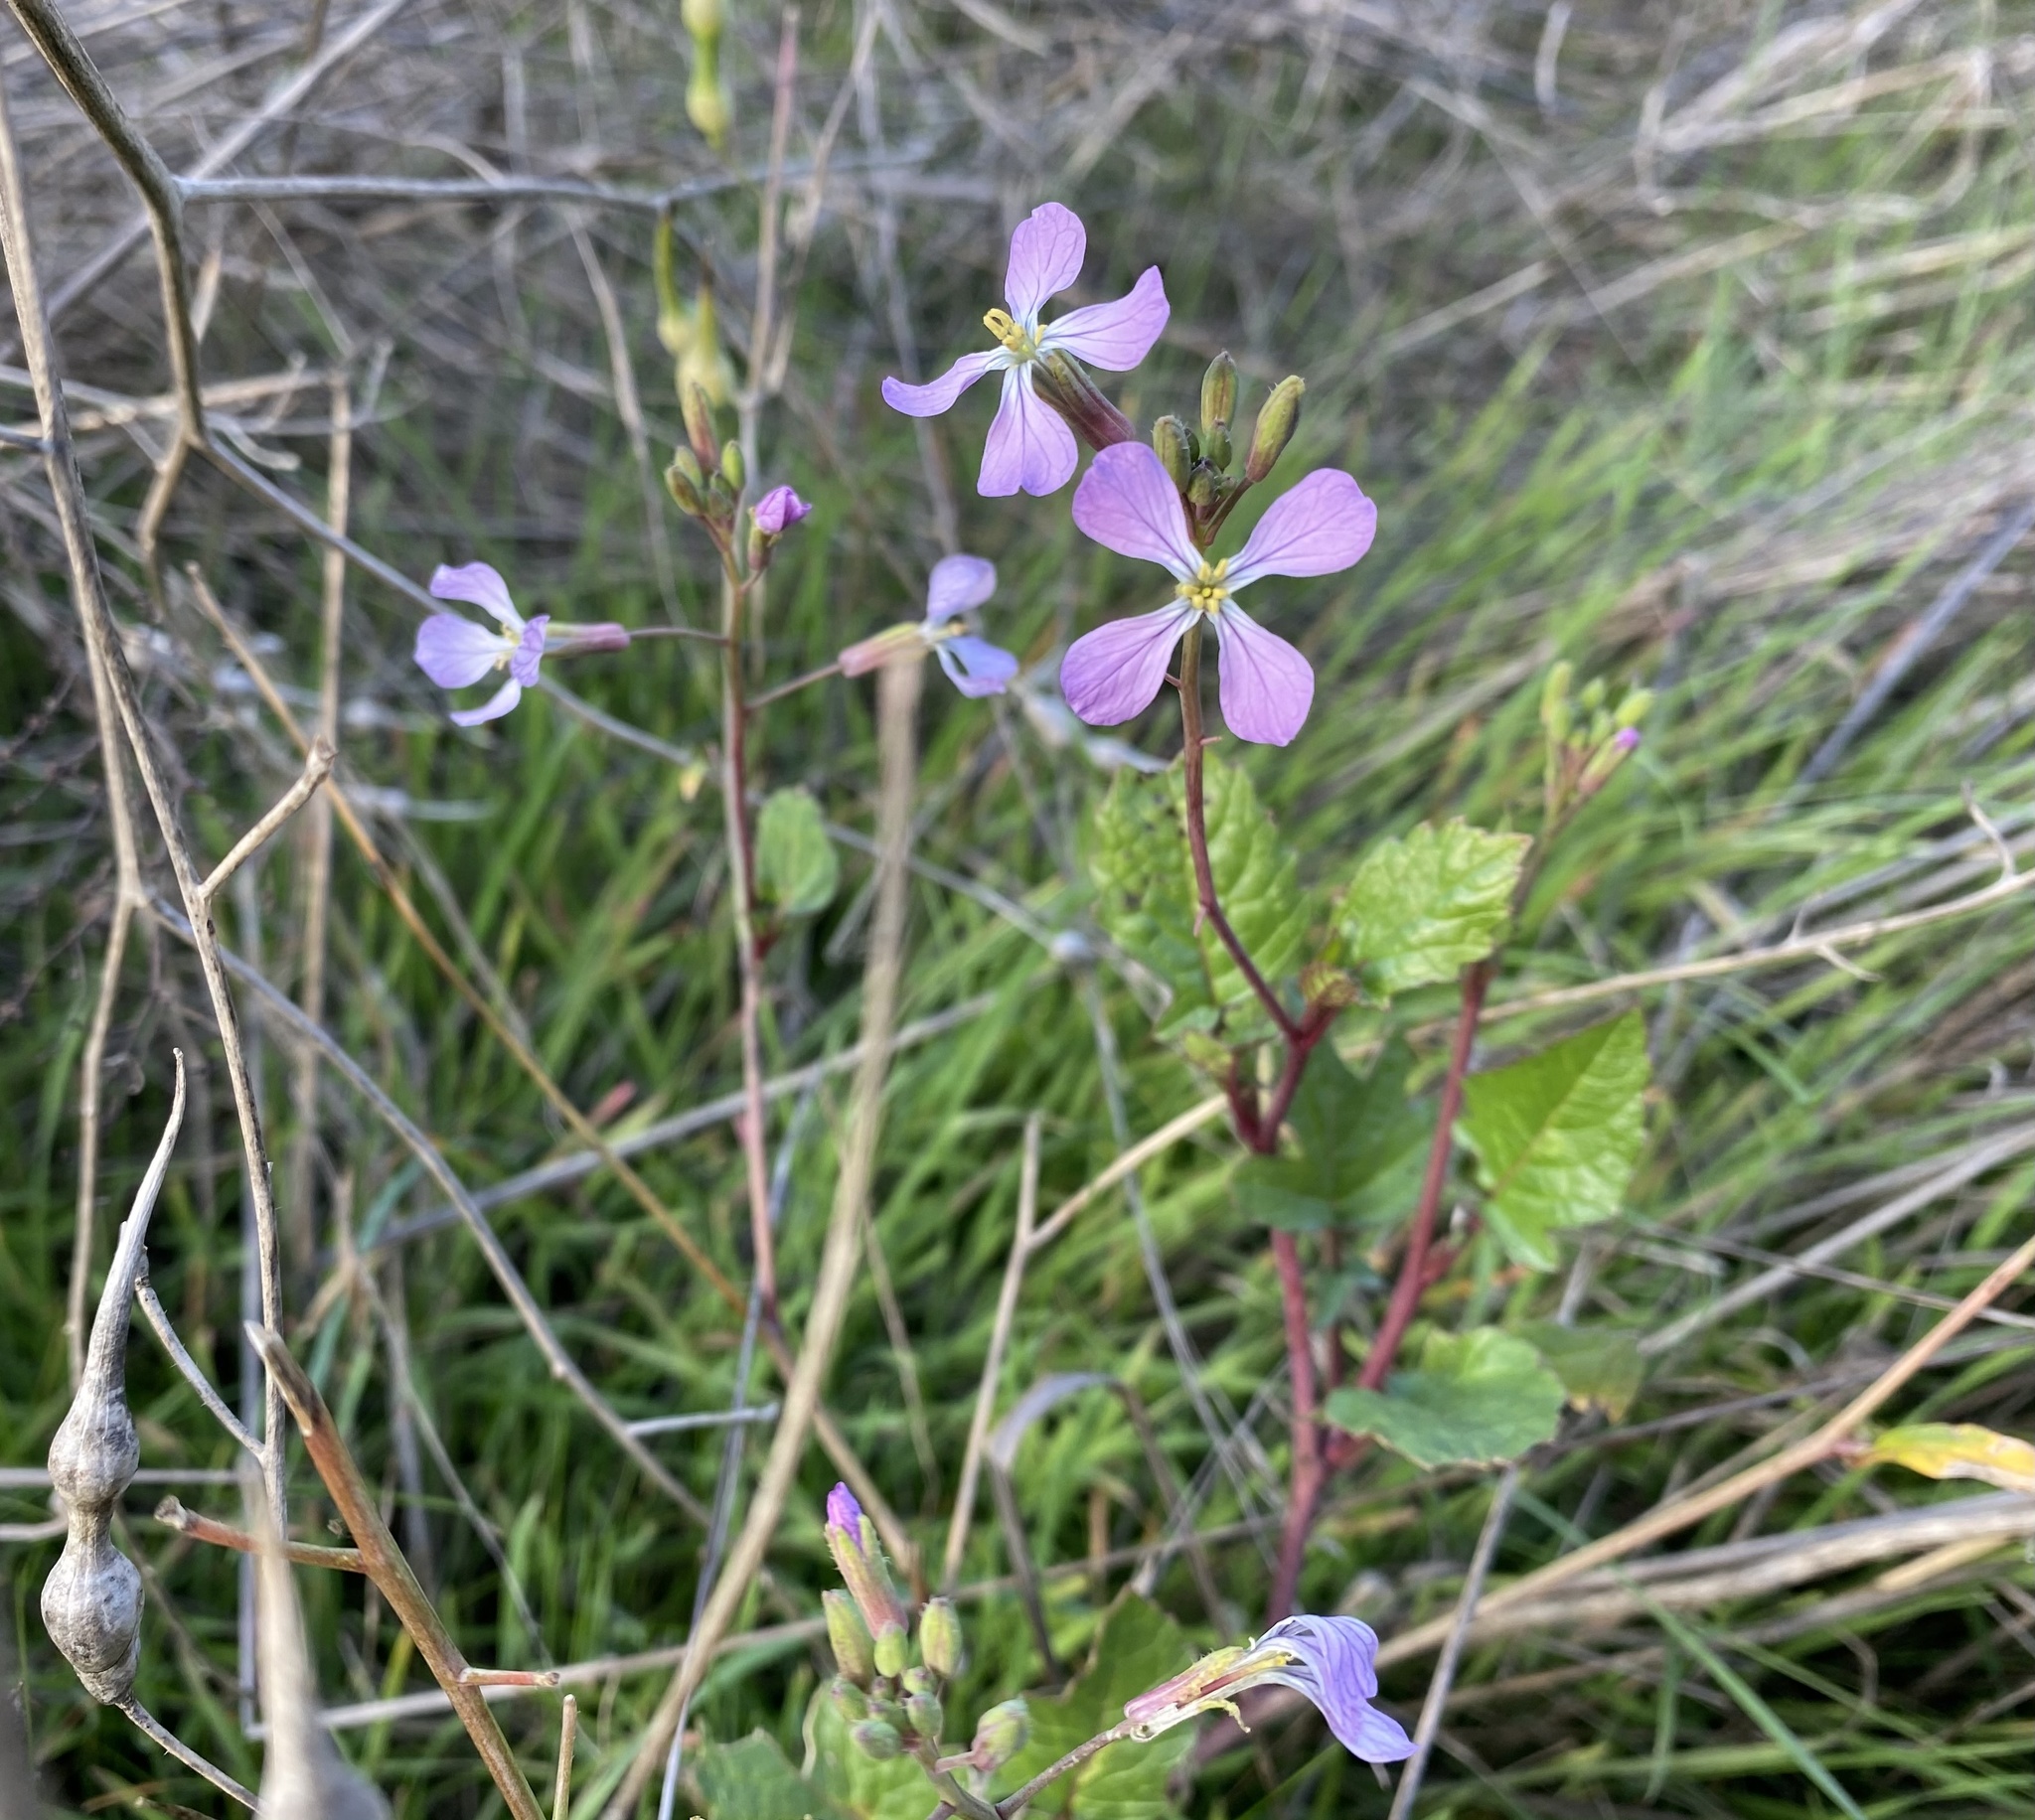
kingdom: Plantae
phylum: Tracheophyta
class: Magnoliopsida
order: Brassicales
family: Brassicaceae
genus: Raphanus
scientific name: Raphanus sativus
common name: Cultivated radish
